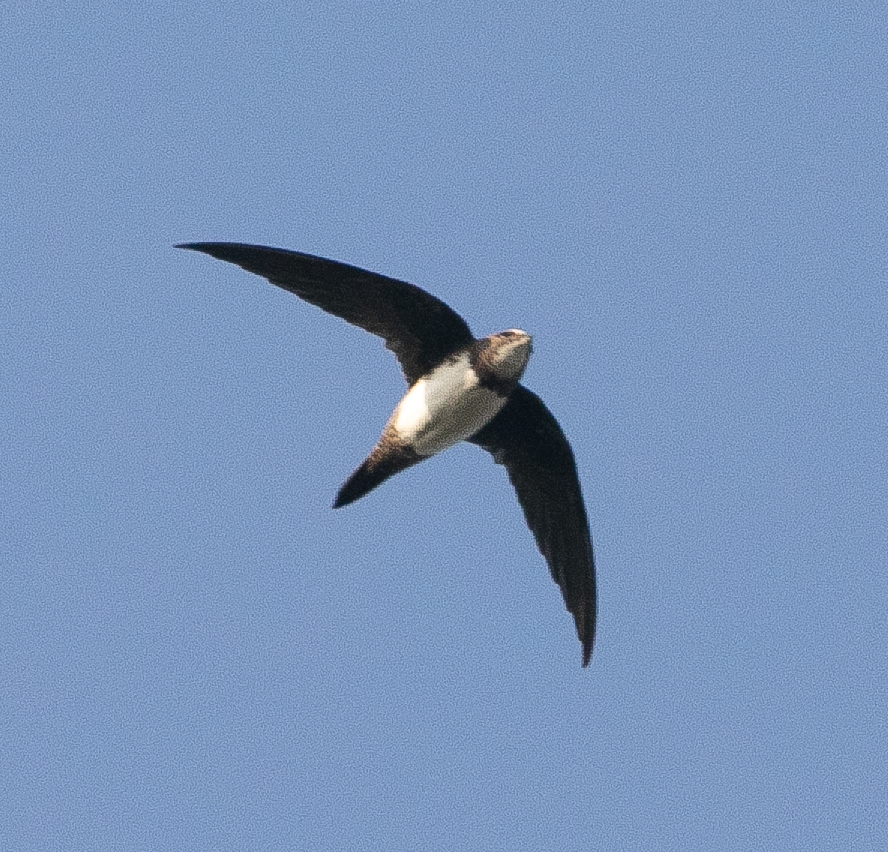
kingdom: Animalia
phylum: Chordata
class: Aves
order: Apodiformes
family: Apodidae
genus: Tachymarptis
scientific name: Tachymarptis melba
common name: Alpine swift
